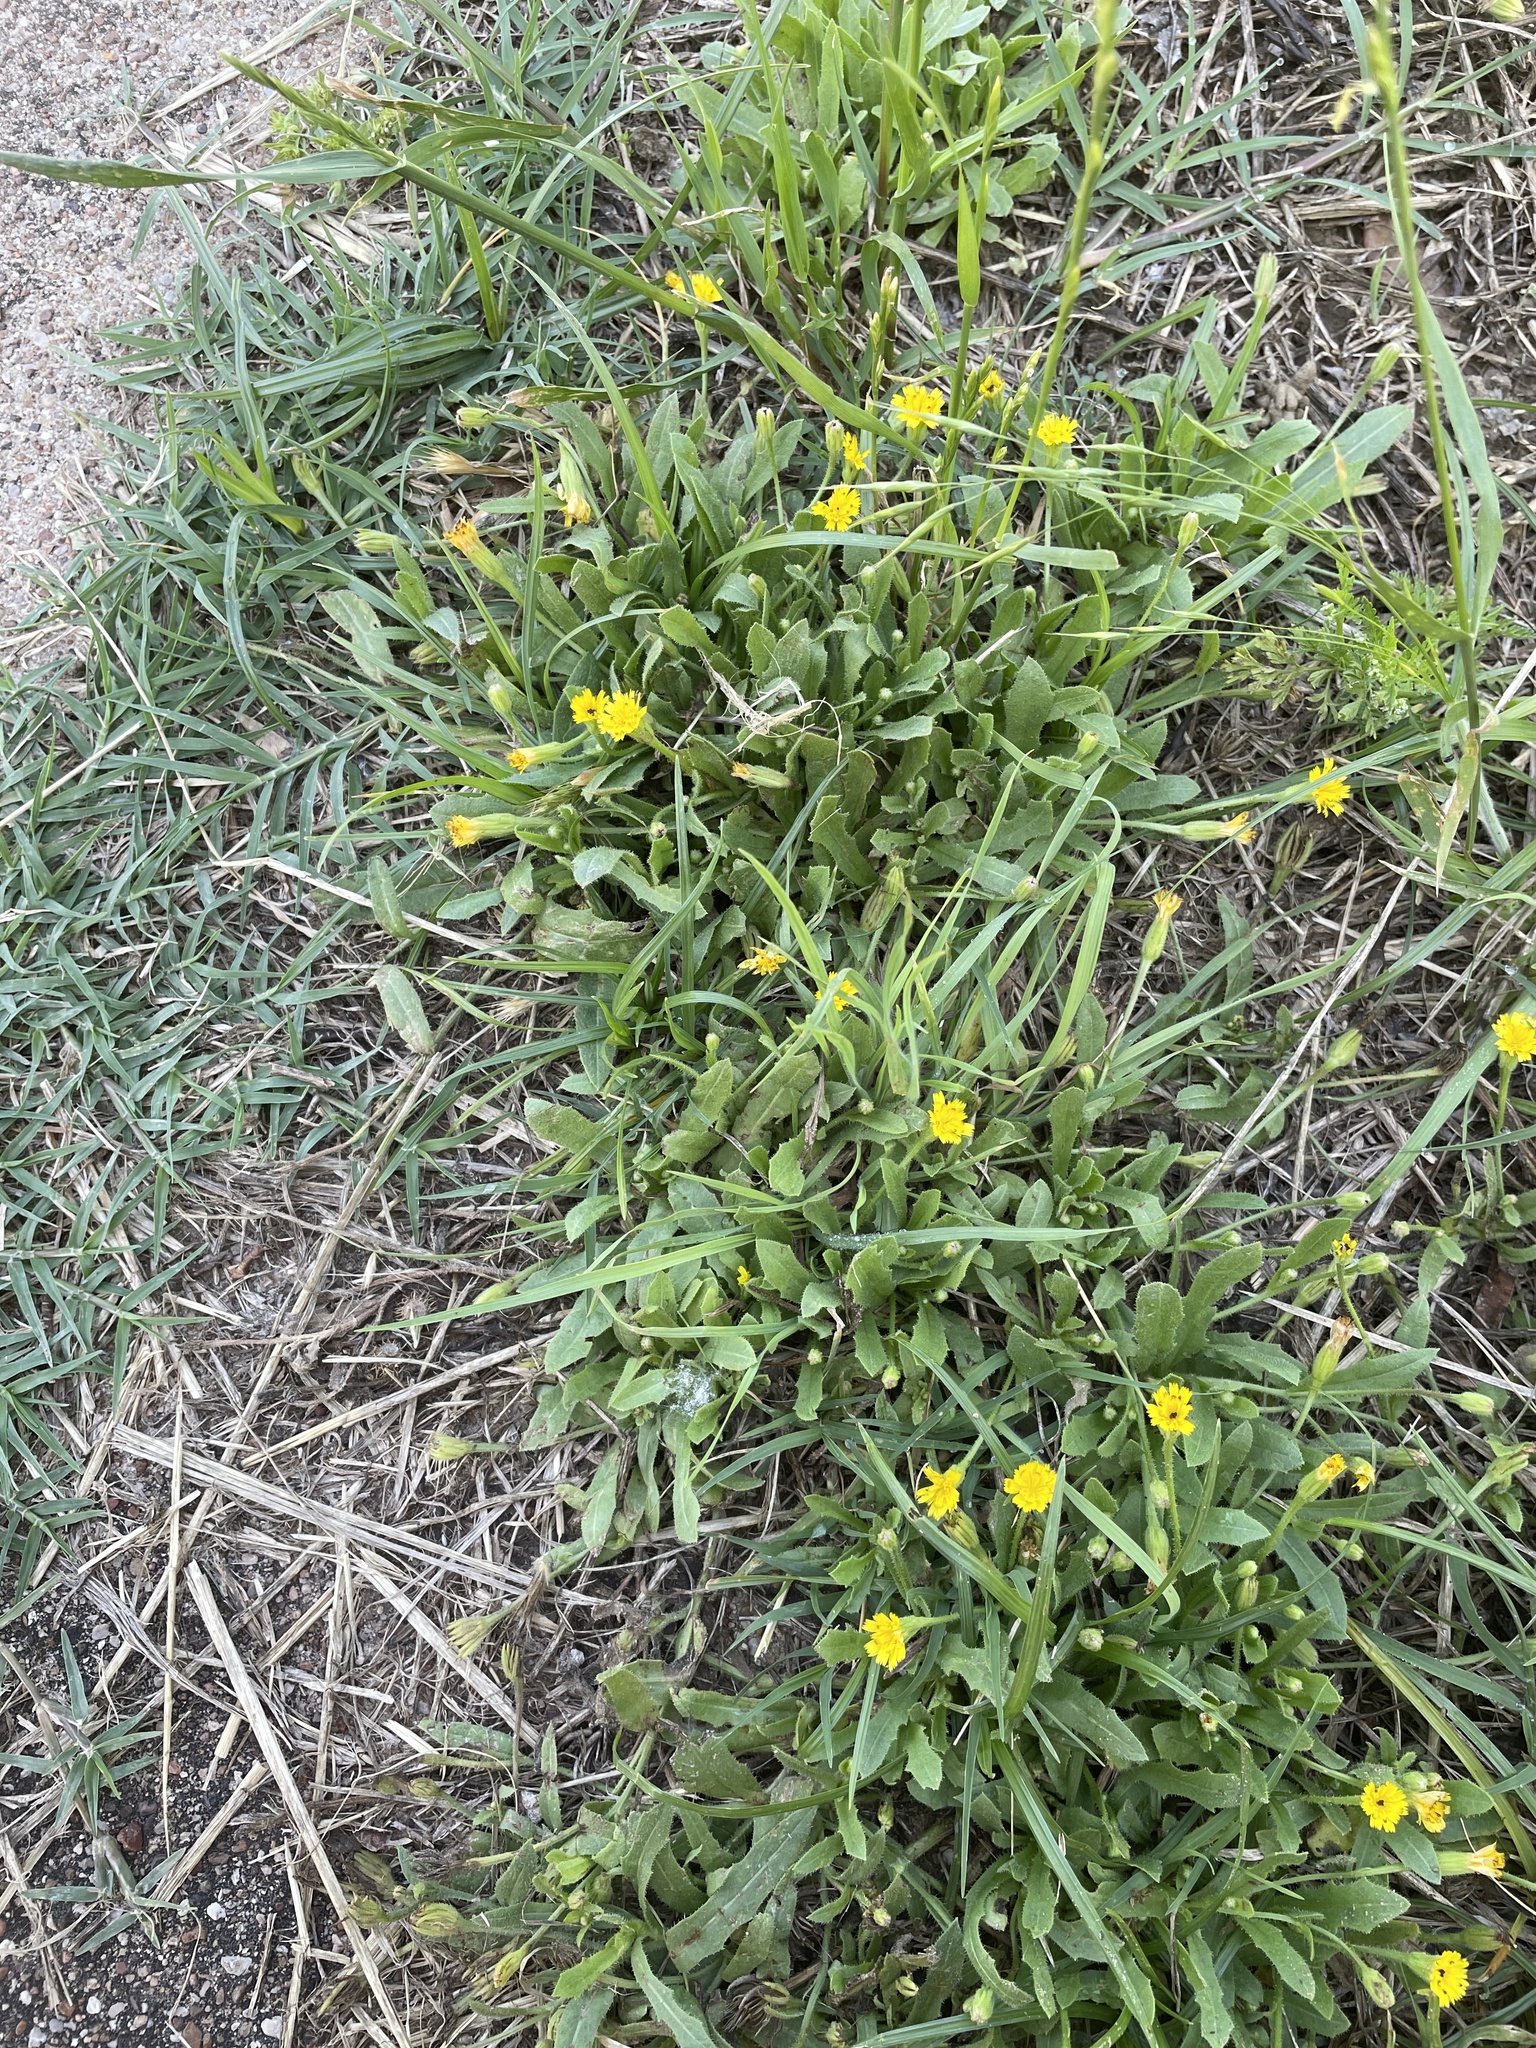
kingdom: Plantae
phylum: Tracheophyta
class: Magnoliopsida
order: Asterales
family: Asteraceae
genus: Hedypnois
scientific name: Hedypnois rhagadioloides
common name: Cretan weed
